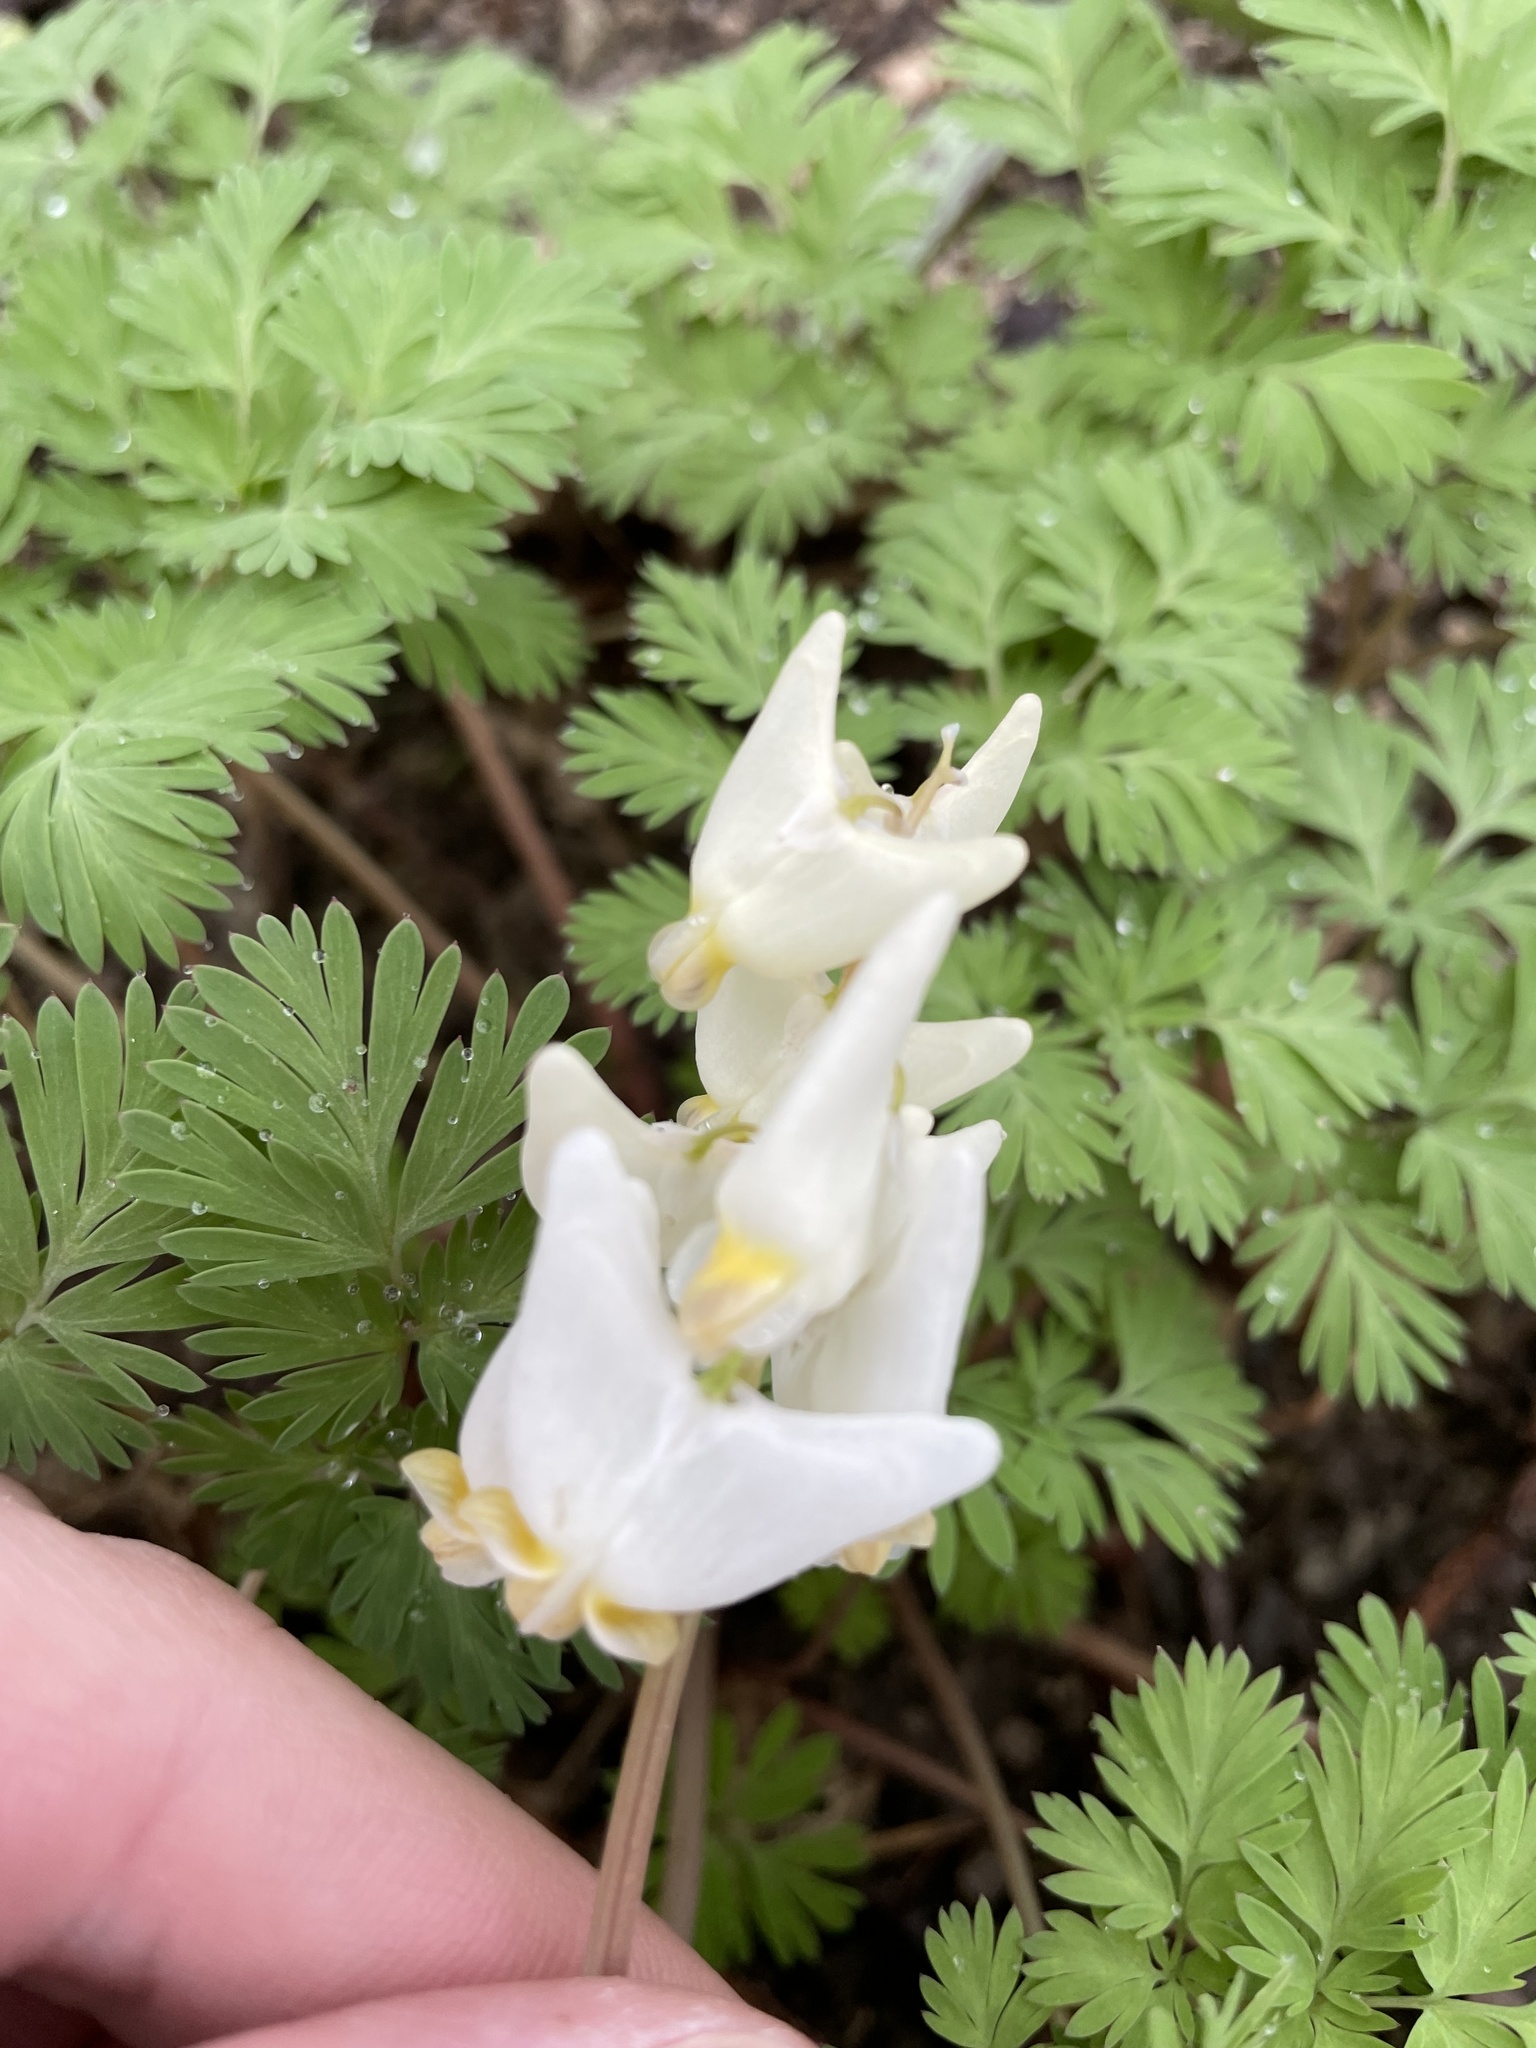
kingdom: Plantae
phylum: Tracheophyta
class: Magnoliopsida
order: Ranunculales
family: Papaveraceae
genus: Dicentra
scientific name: Dicentra cucullaria
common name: Dutchman's breeches
